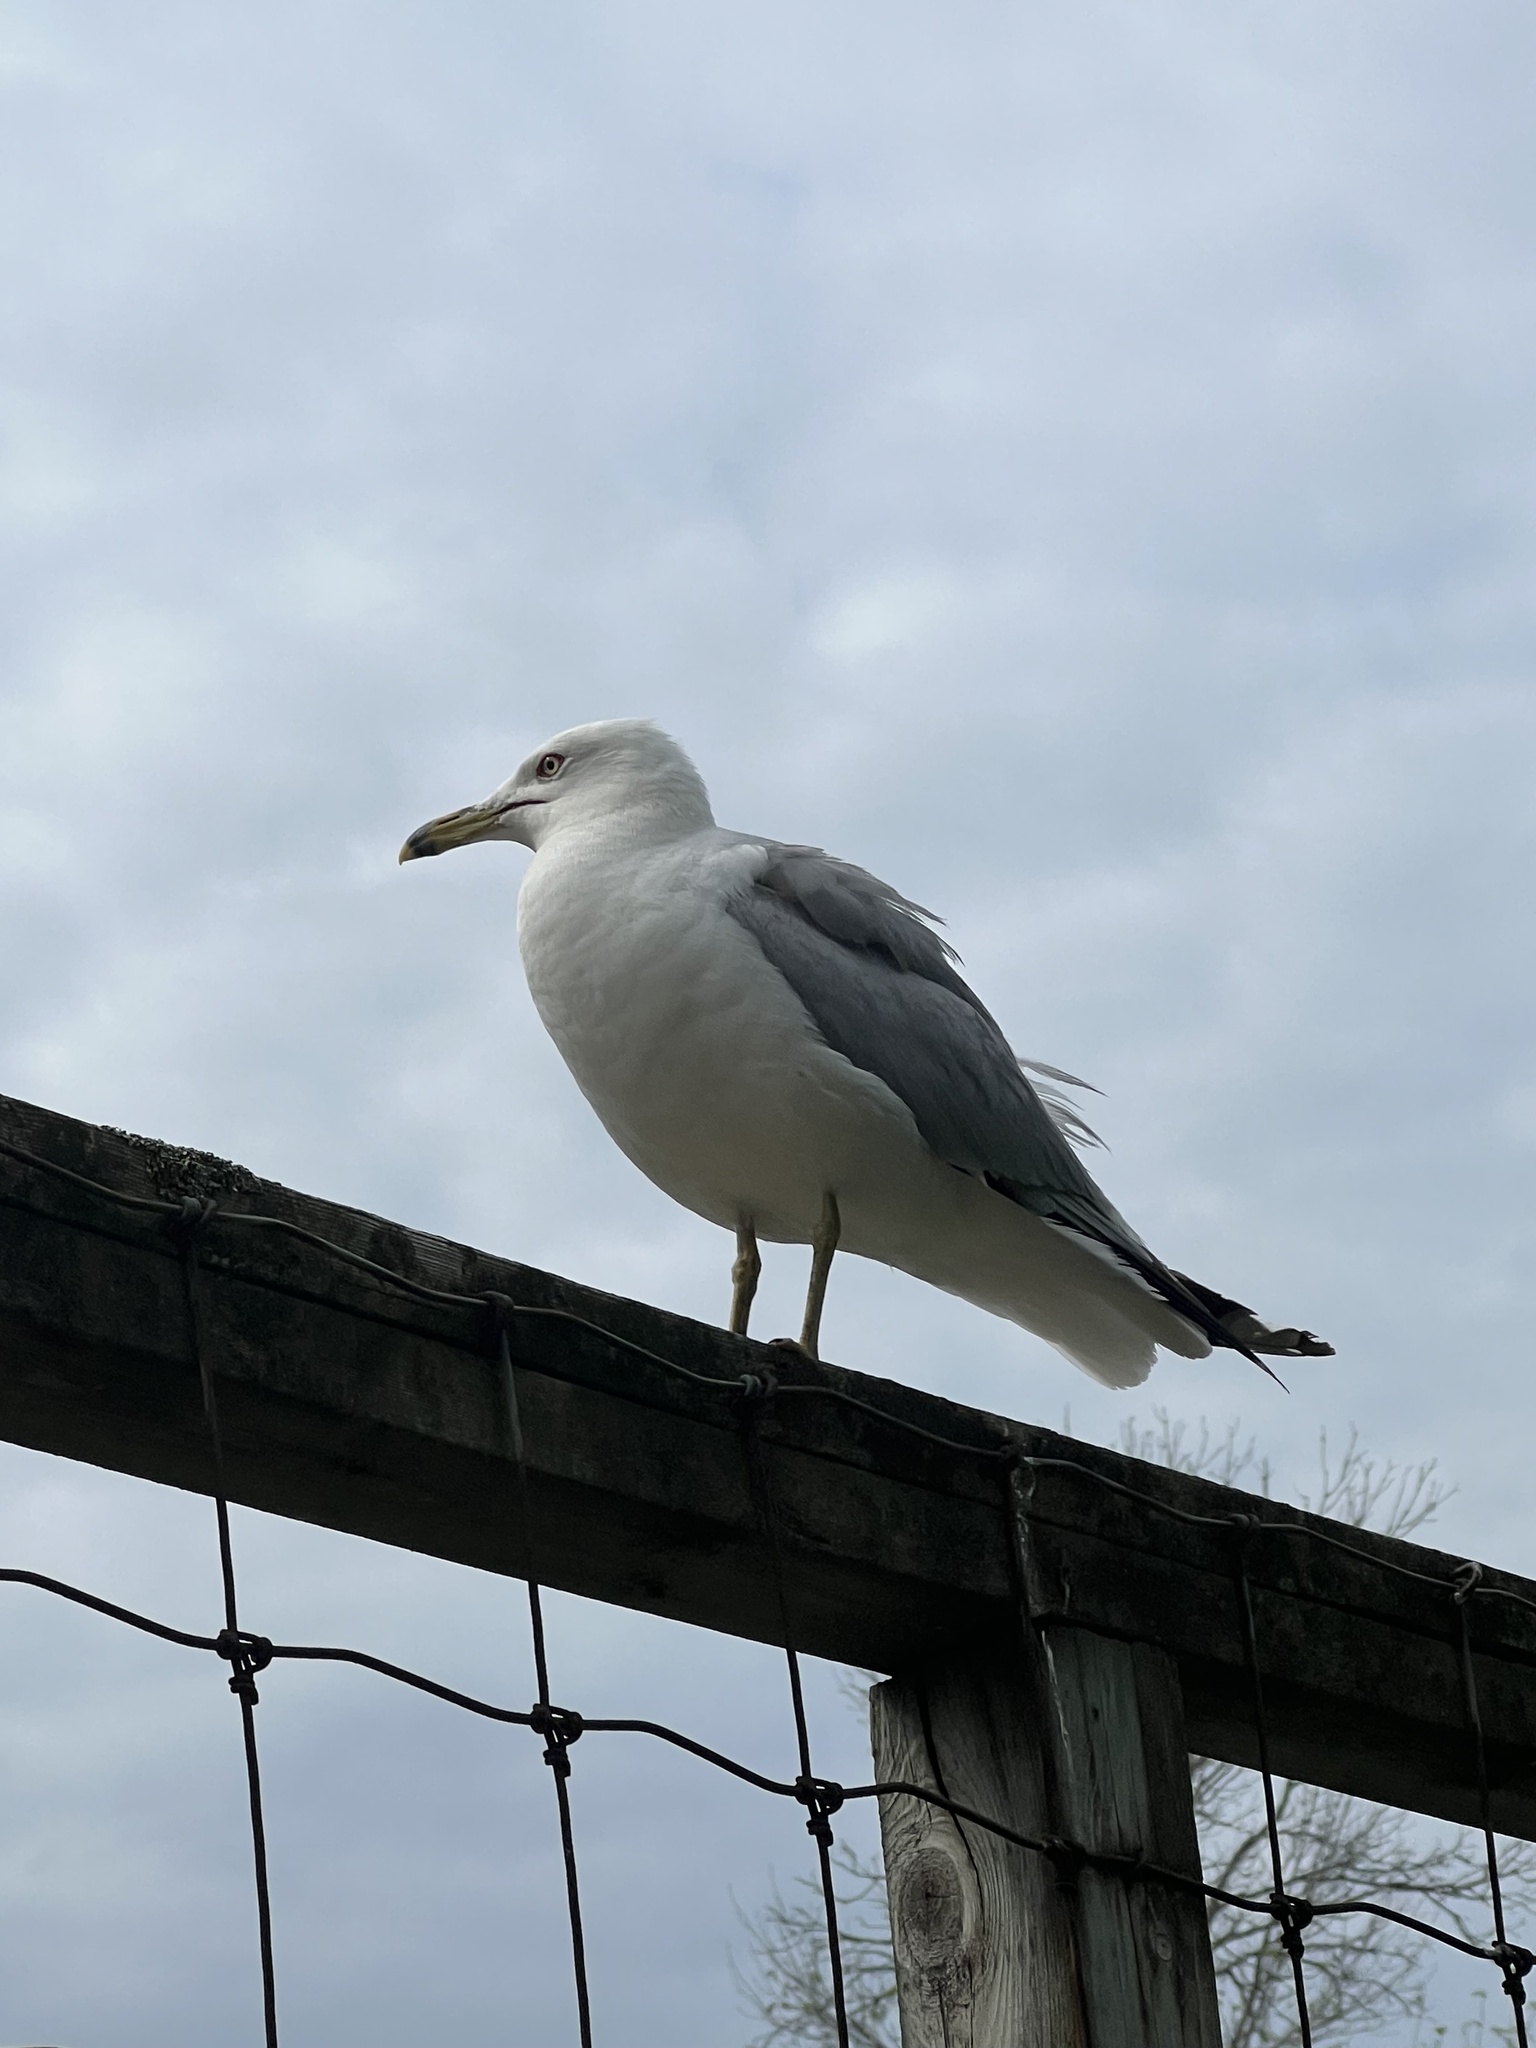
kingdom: Animalia
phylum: Chordata
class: Aves
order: Charadriiformes
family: Laridae
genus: Larus
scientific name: Larus delawarensis
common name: Ring-billed gull
